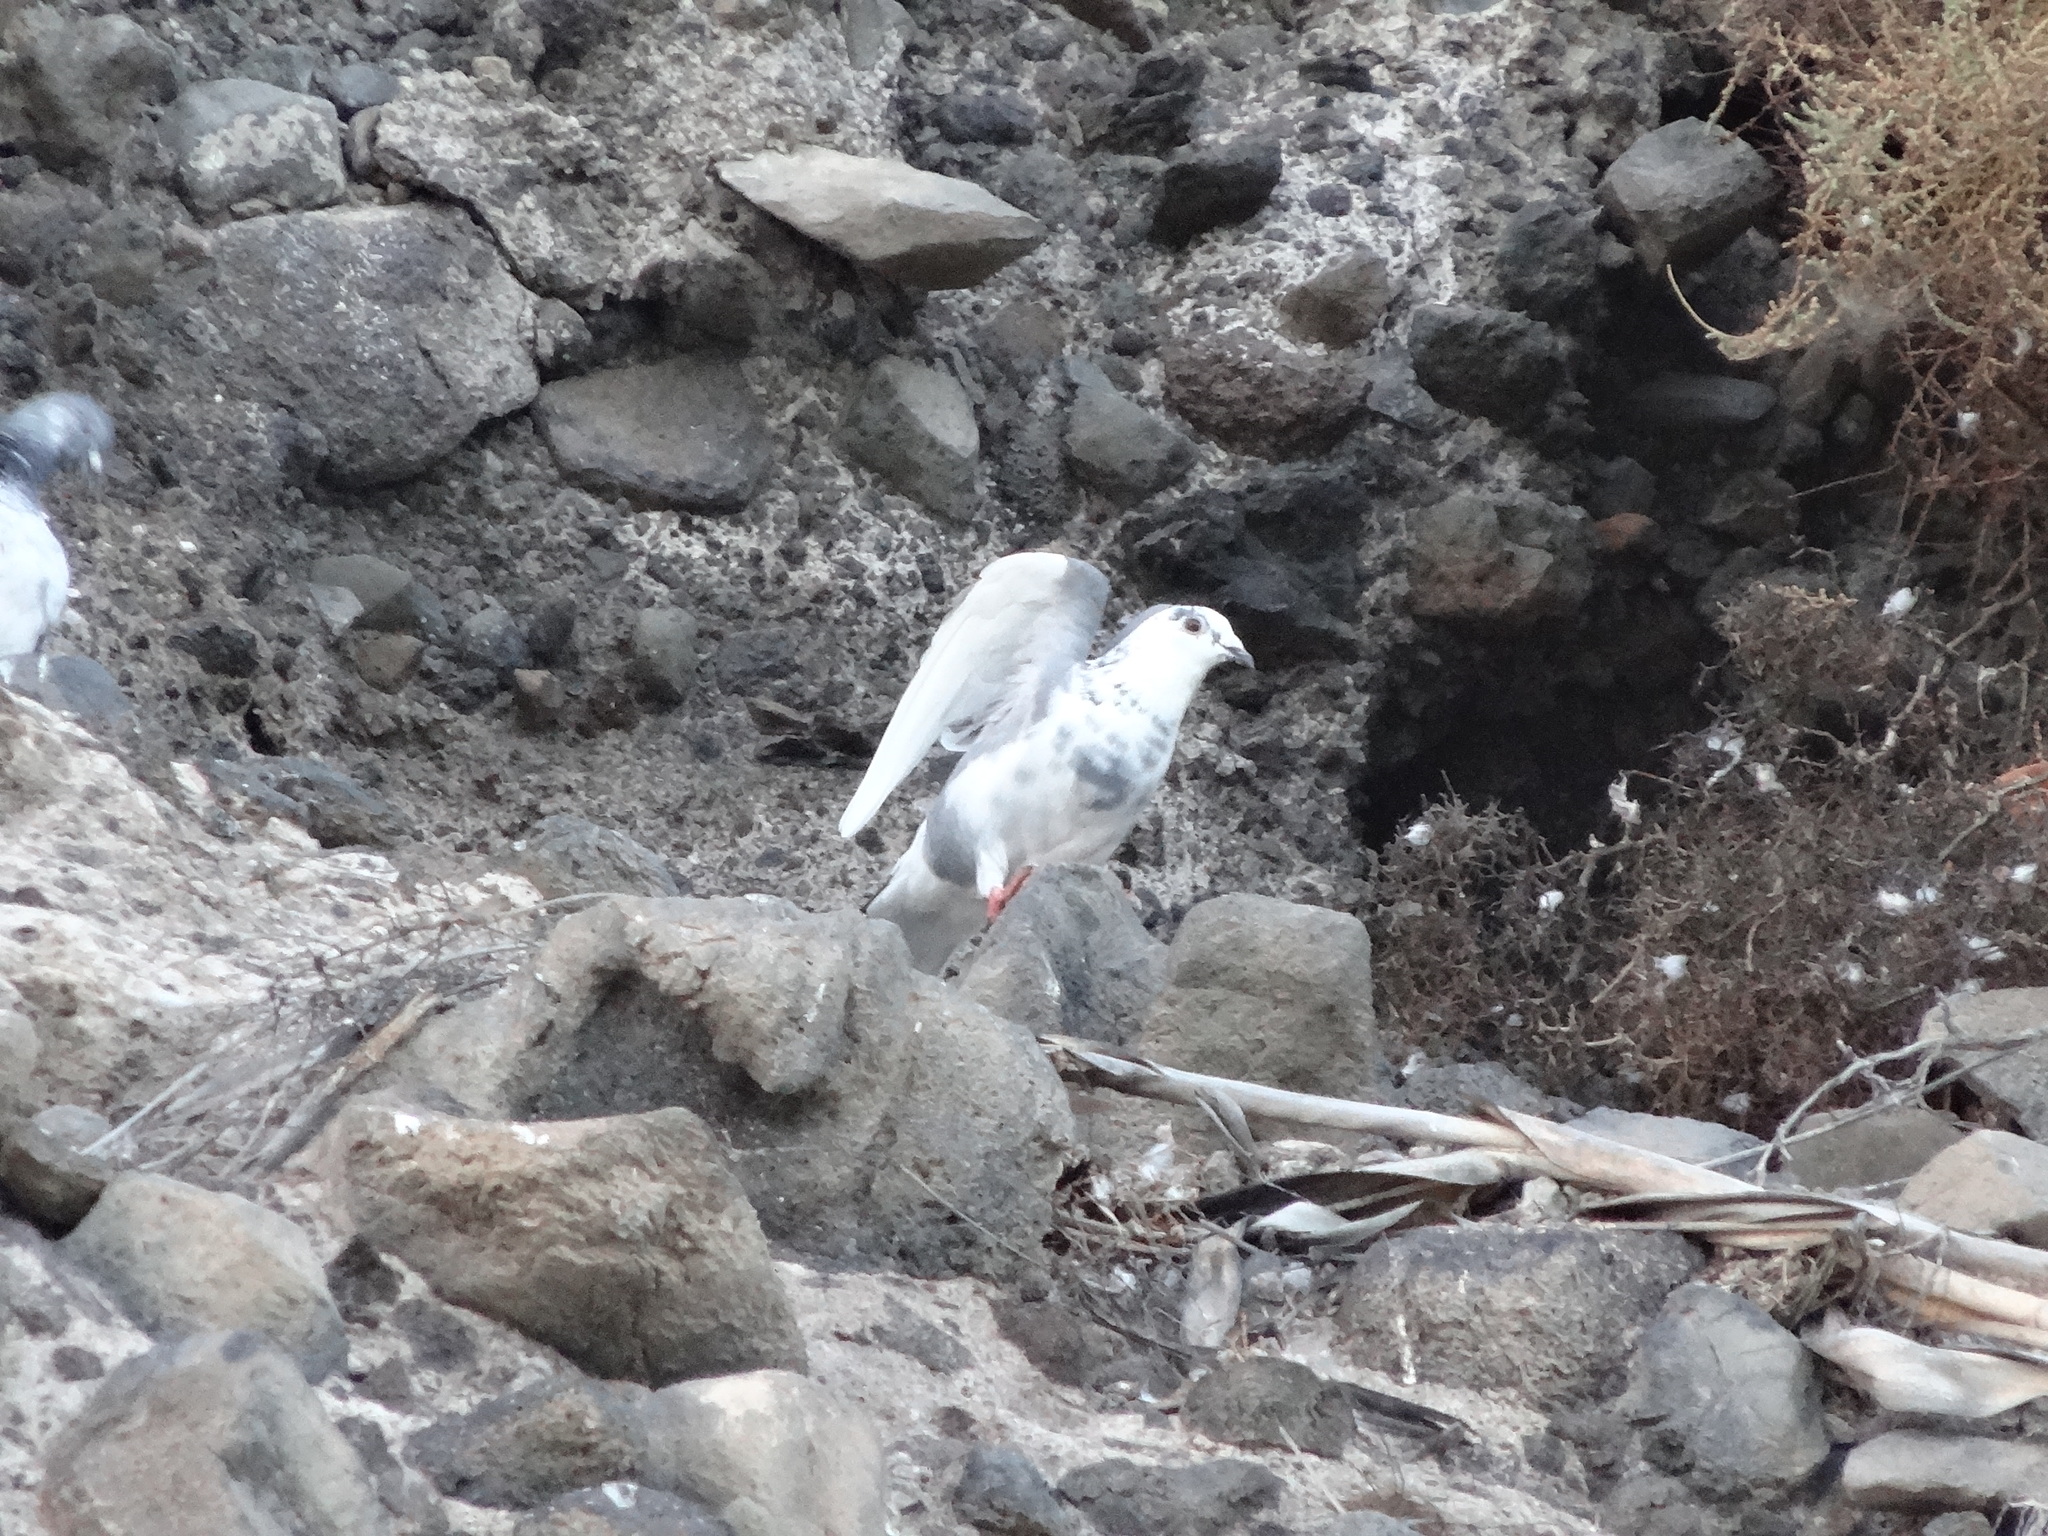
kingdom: Animalia
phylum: Chordata
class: Aves
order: Columbiformes
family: Columbidae
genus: Columba
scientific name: Columba livia
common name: Rock pigeon
